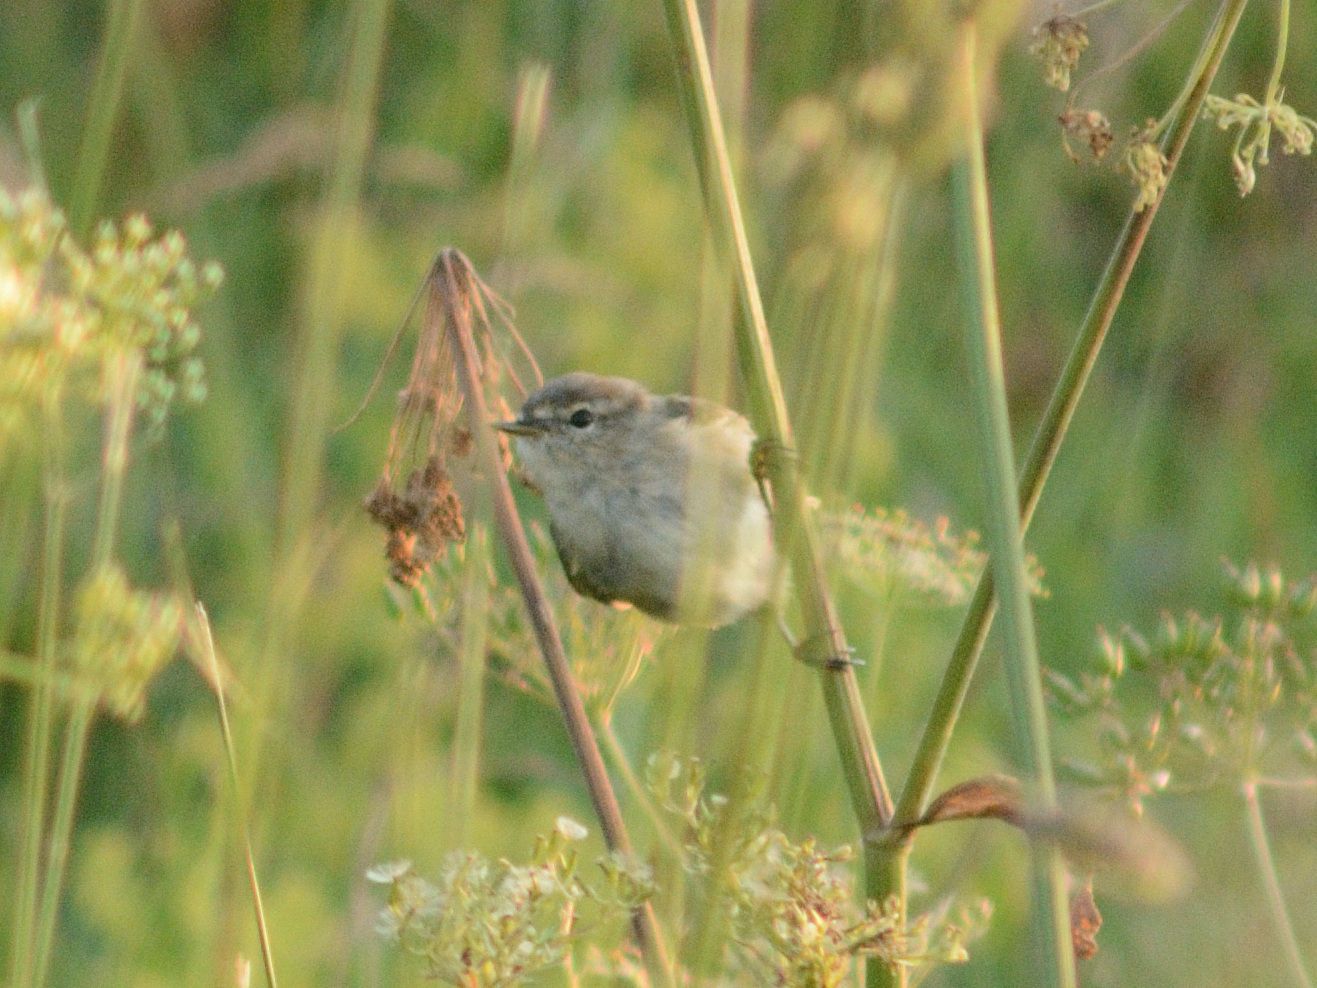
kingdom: Animalia
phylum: Chordata
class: Aves
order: Passeriformes
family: Phylloscopidae
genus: Phylloscopus
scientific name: Phylloscopus collybita
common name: Common chiffchaff
